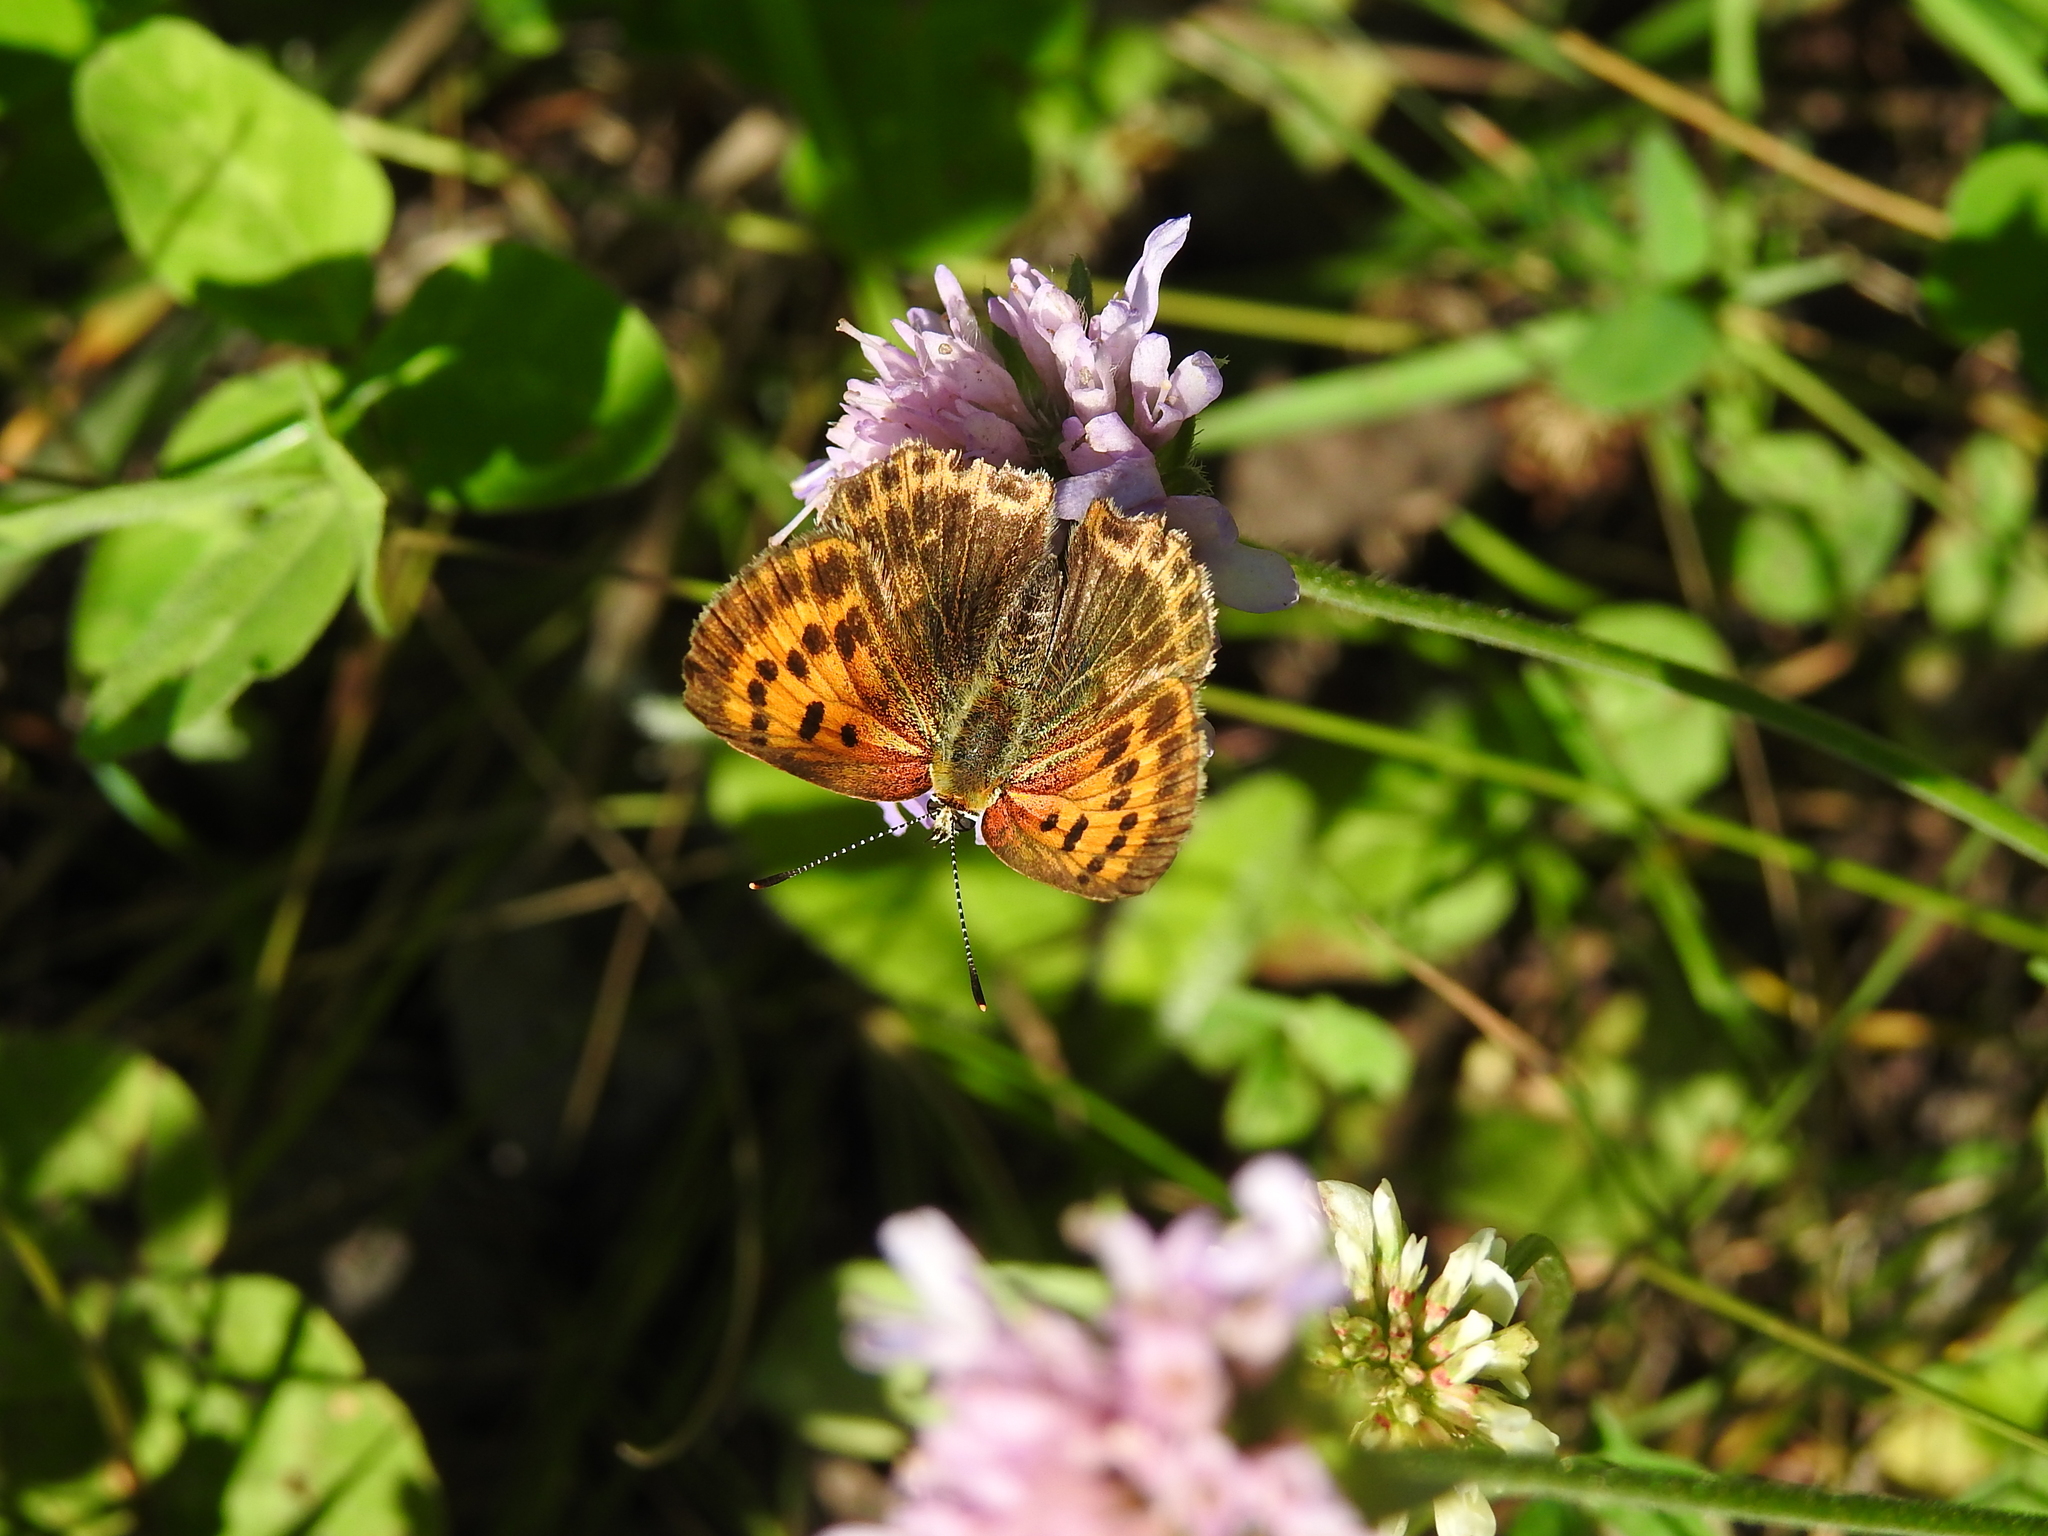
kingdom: Animalia
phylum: Arthropoda
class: Insecta
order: Lepidoptera
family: Lycaenidae
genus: Lycaena
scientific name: Lycaena virgaureae
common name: Scarce copper
